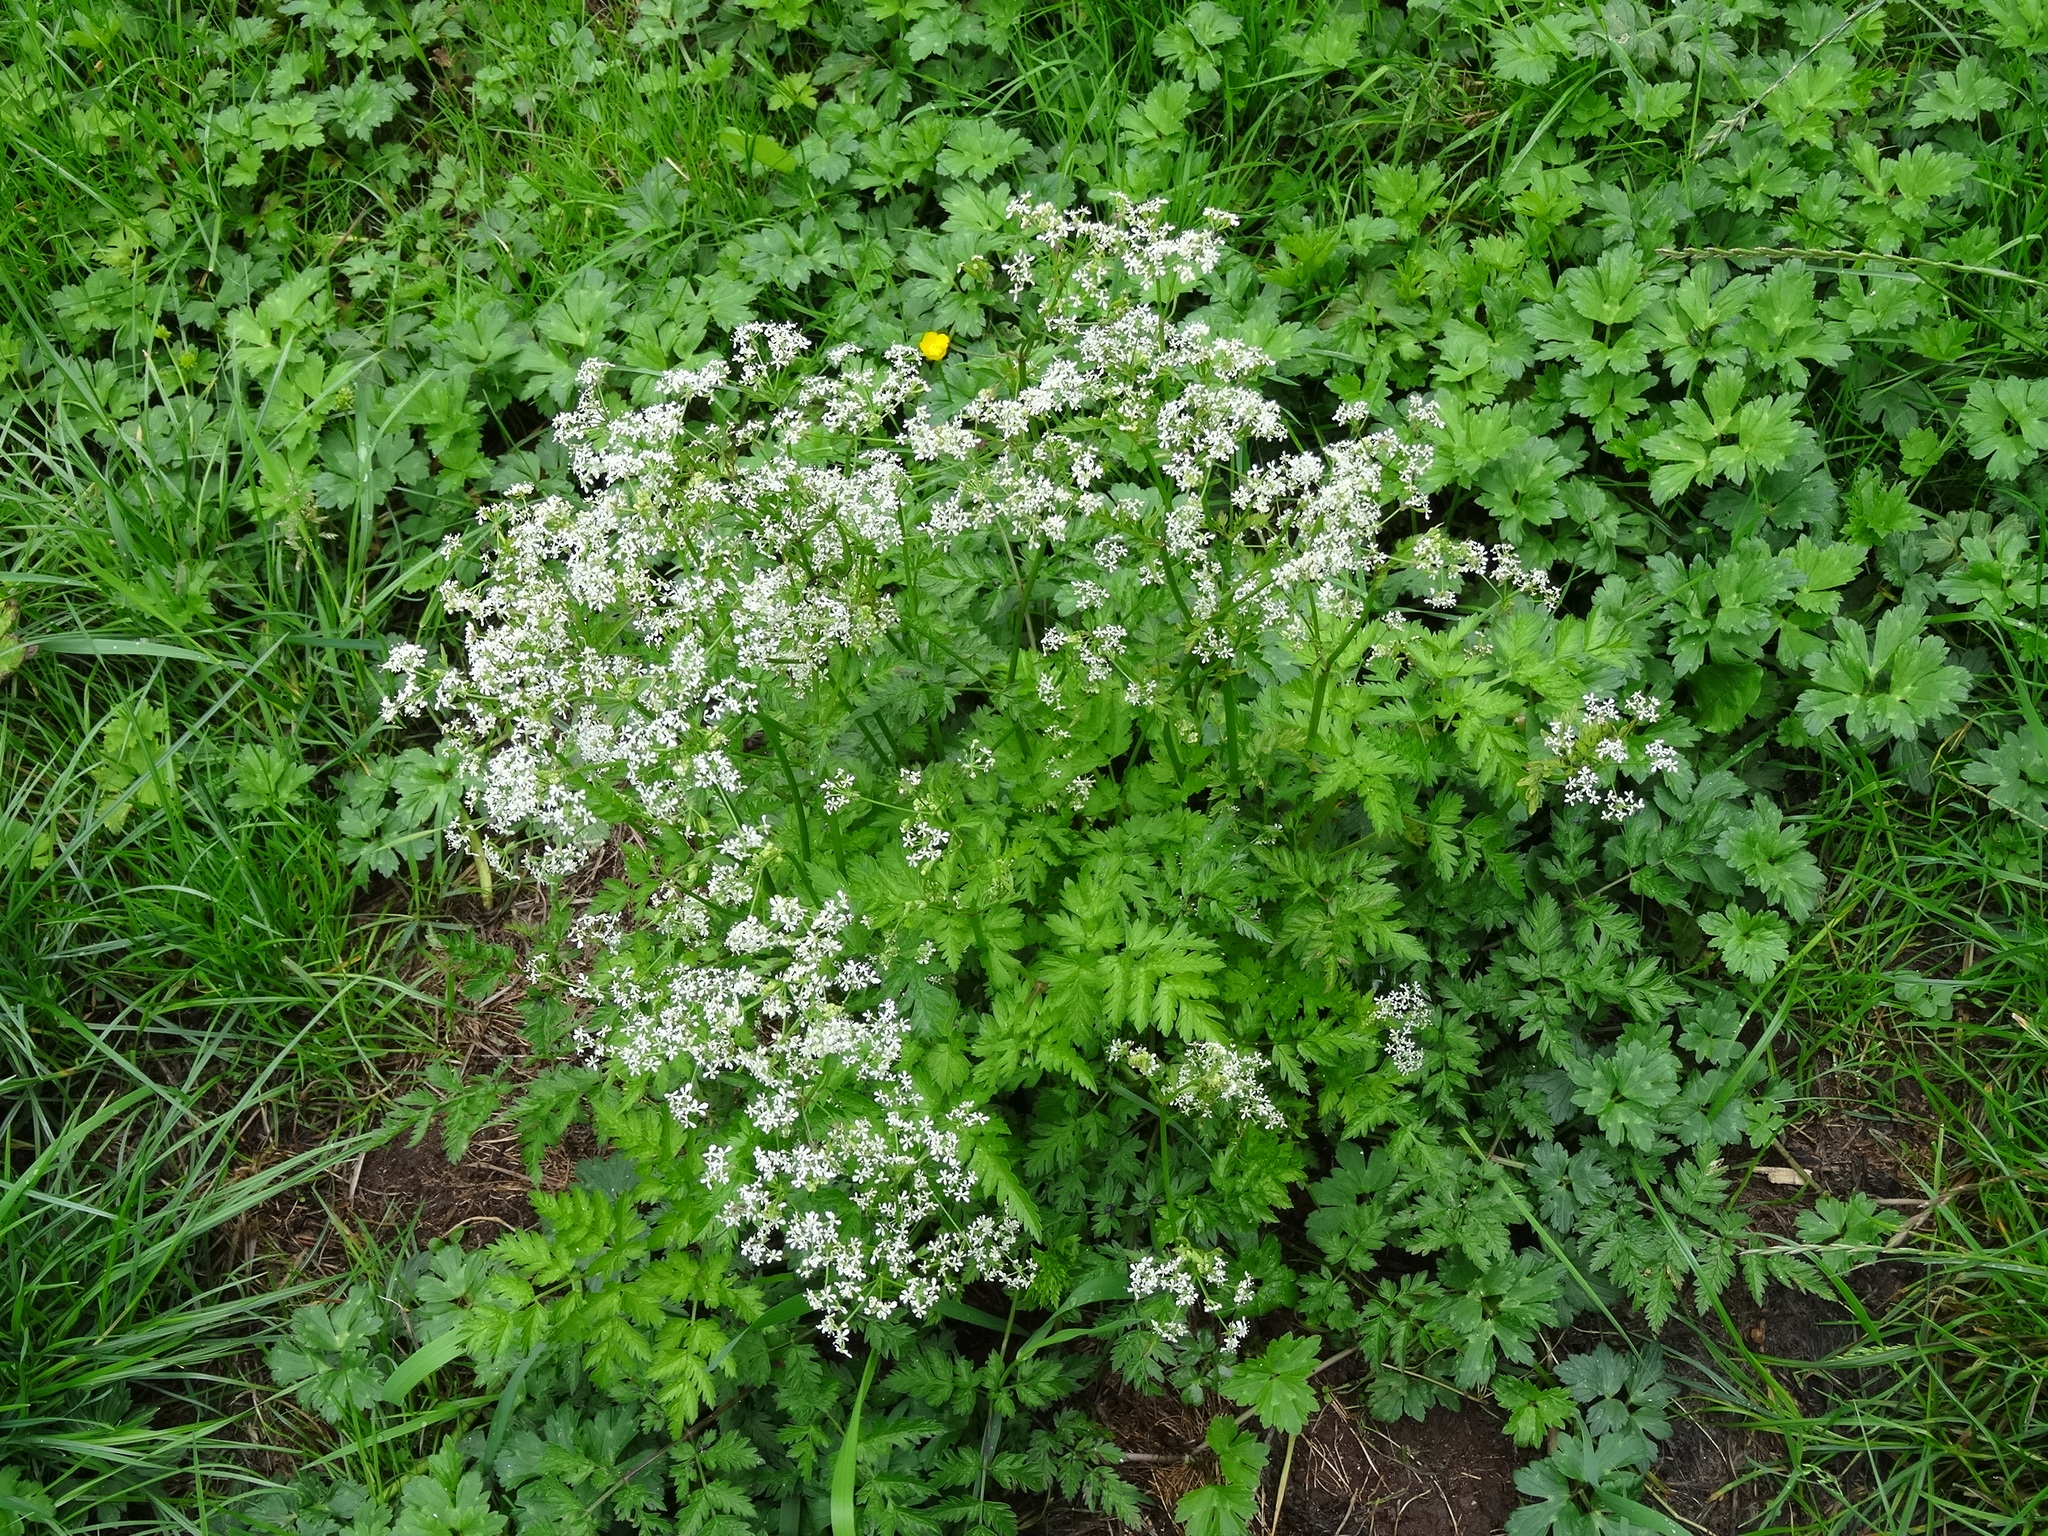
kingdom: Plantae
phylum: Tracheophyta
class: Magnoliopsida
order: Apiales
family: Apiaceae
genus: Anthriscus
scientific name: Anthriscus sylvestris
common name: Cow parsley
